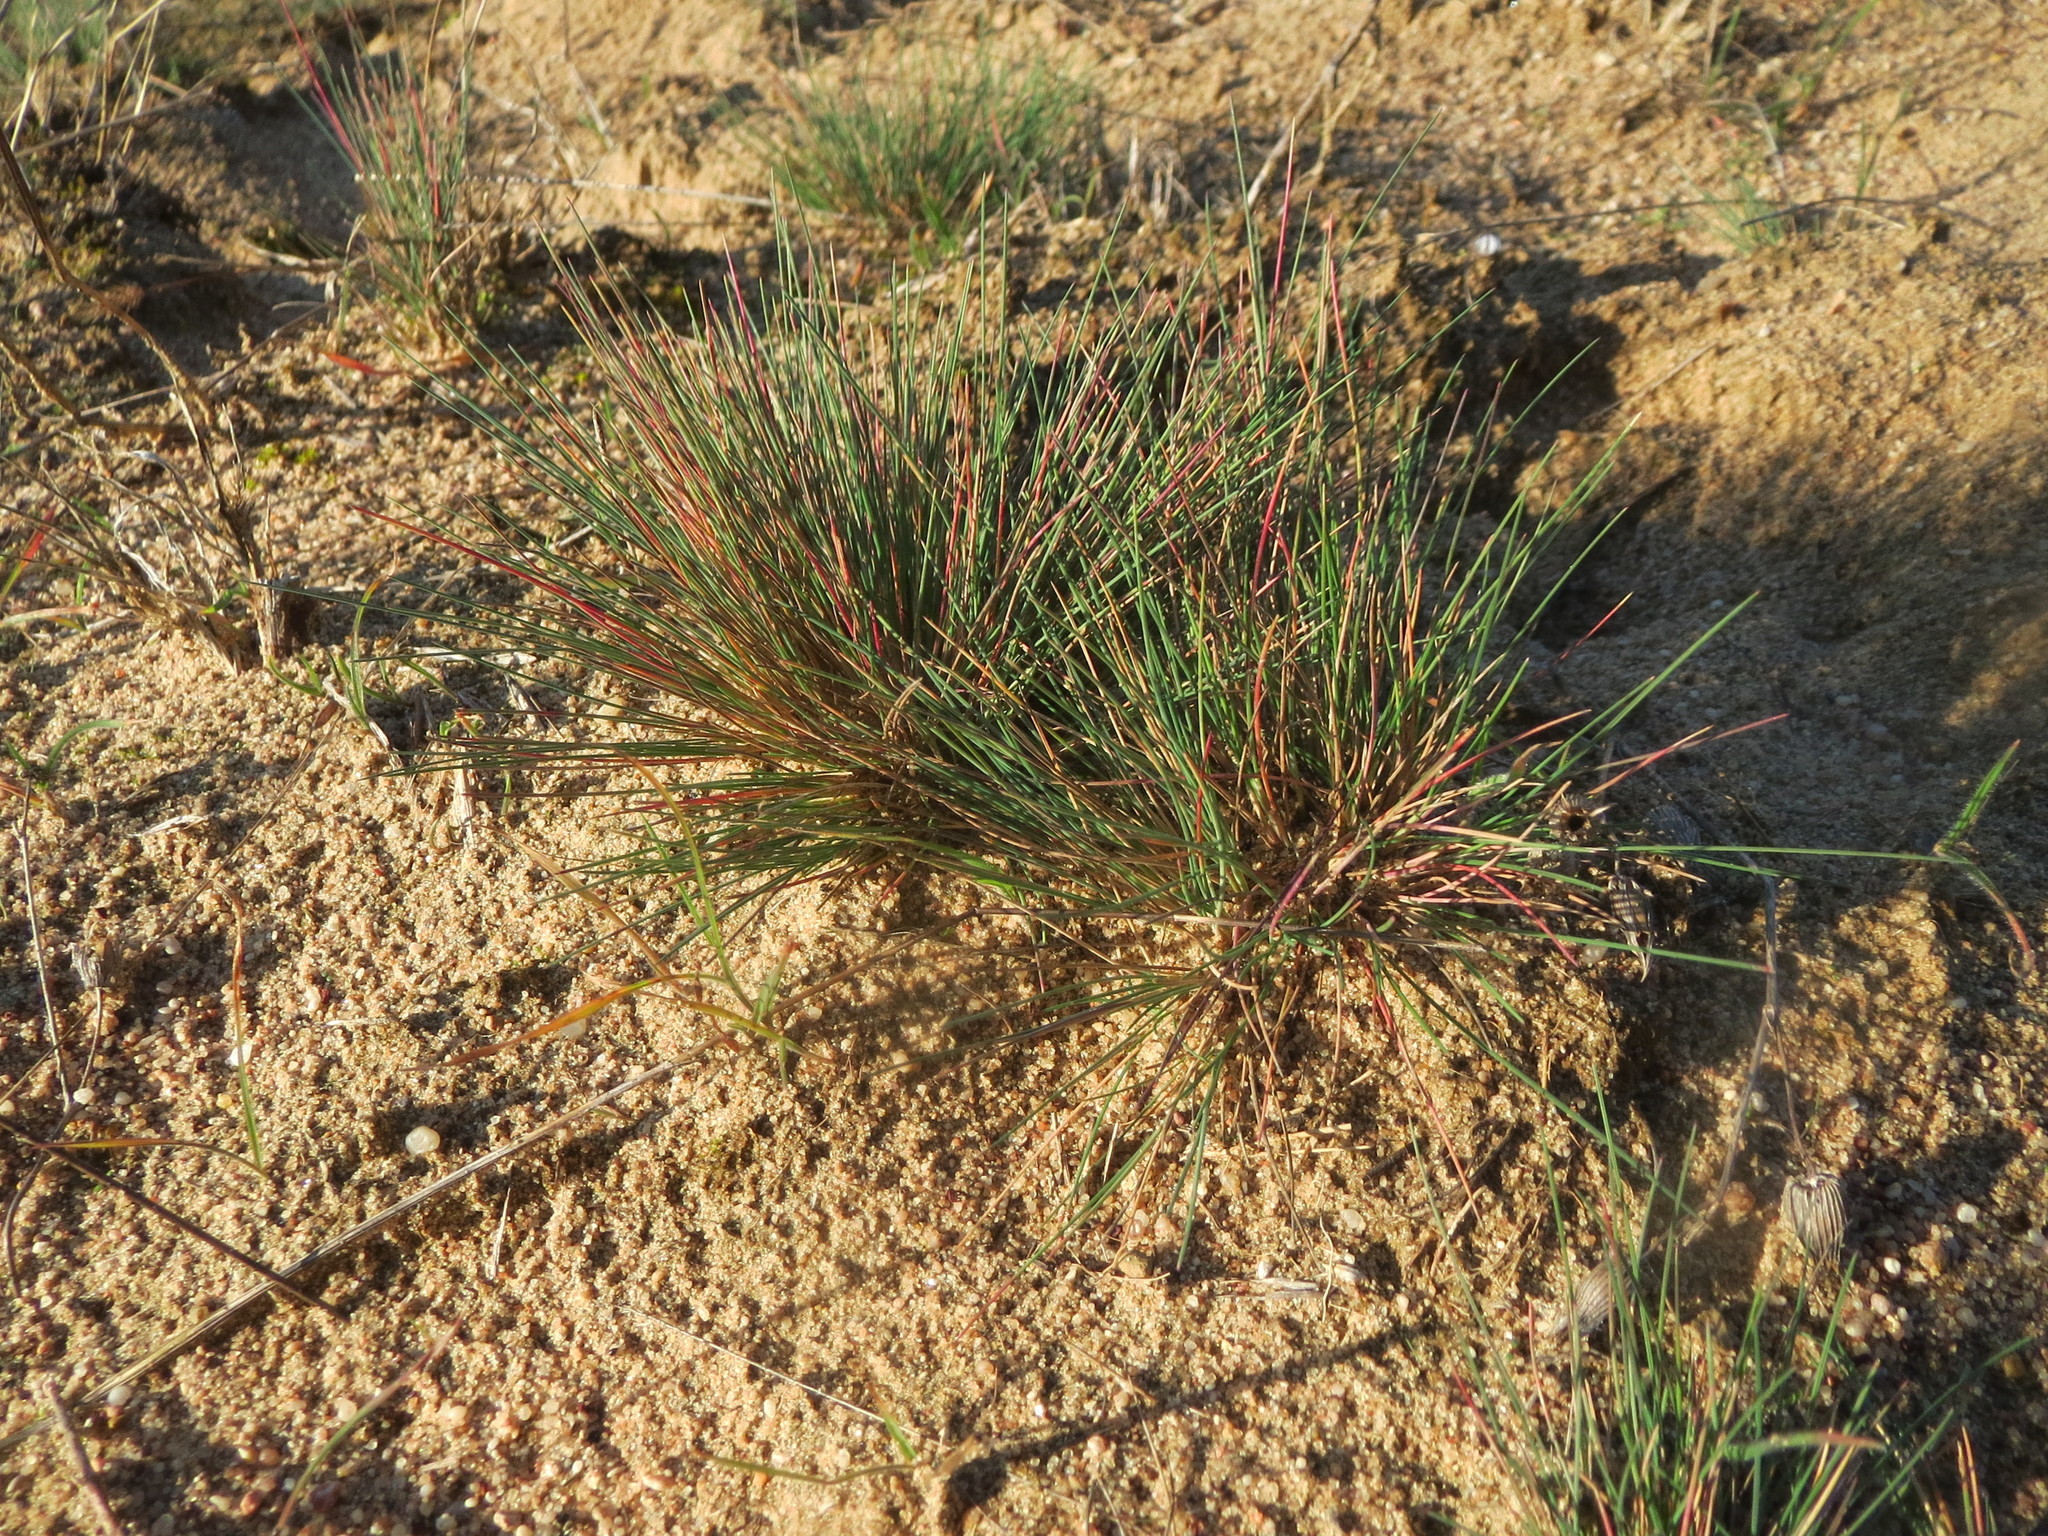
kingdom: Plantae
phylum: Tracheophyta
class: Liliopsida
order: Poales
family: Poaceae
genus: Corynephorus
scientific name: Corynephorus canescens
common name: Grey hair-grass
